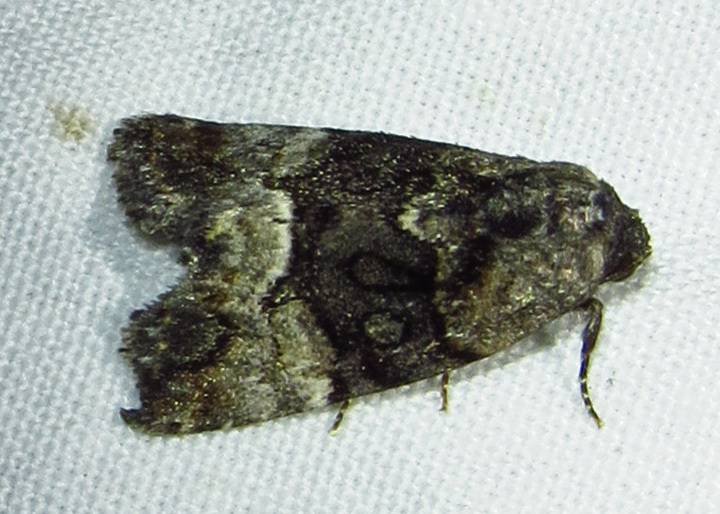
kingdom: Animalia
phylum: Arthropoda
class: Insecta
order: Lepidoptera
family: Noctuidae
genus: Elaphria
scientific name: Elaphria georgei
